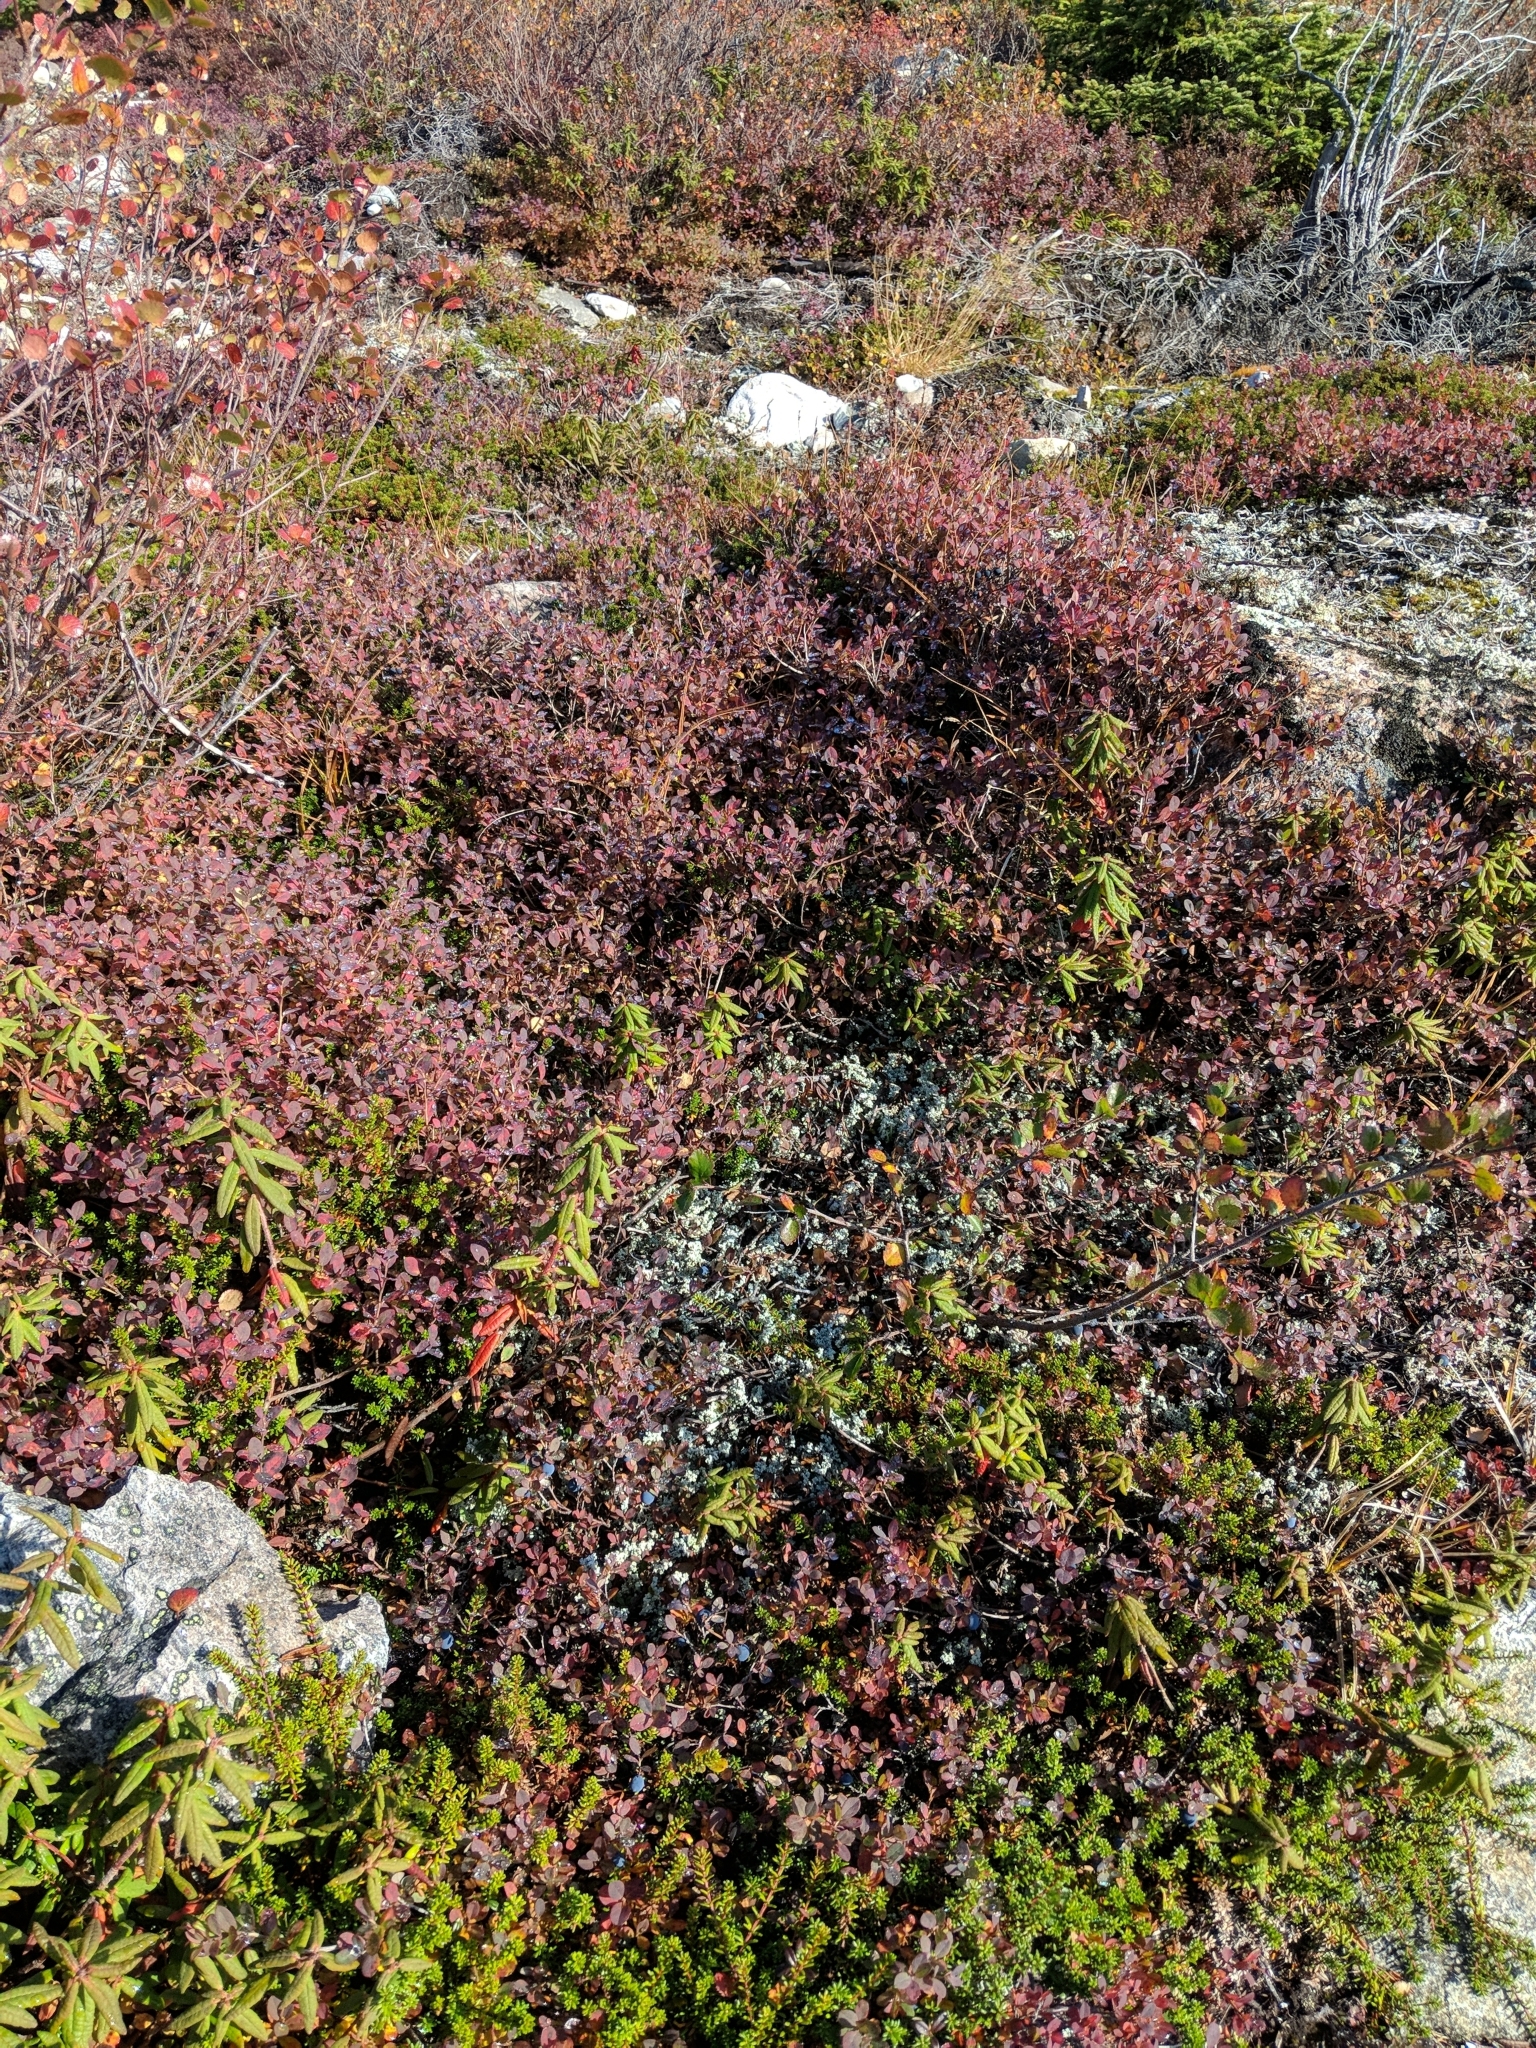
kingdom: Plantae
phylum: Tracheophyta
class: Magnoliopsida
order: Ericales
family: Ericaceae
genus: Vaccinium
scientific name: Vaccinium uliginosum
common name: Bog bilberry
